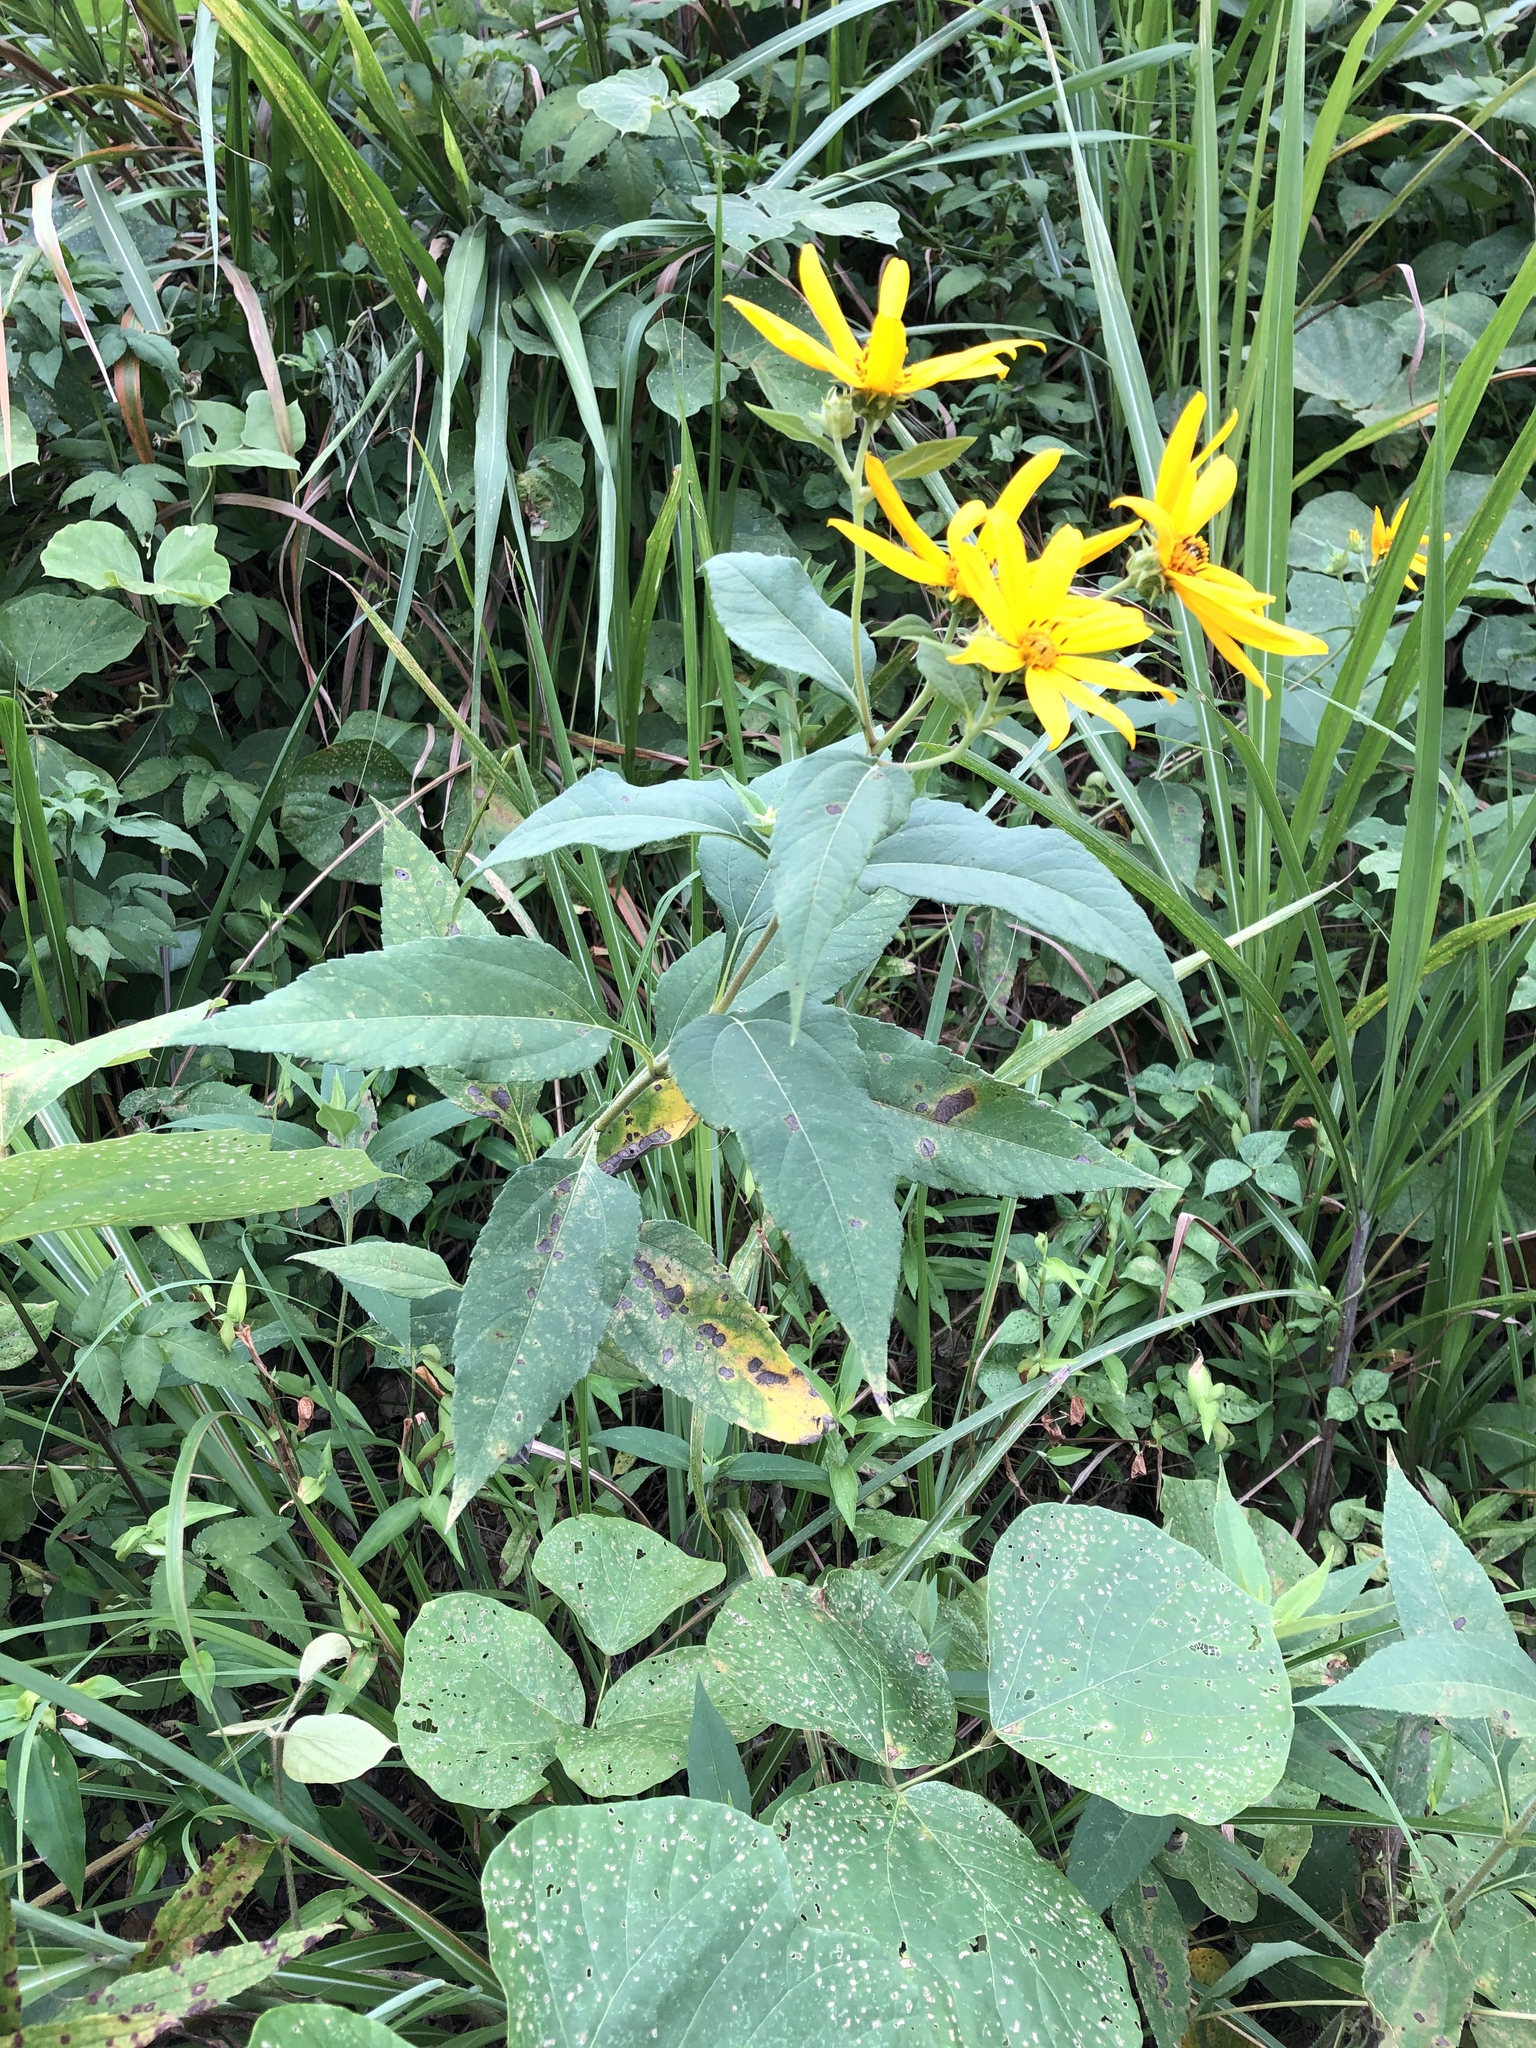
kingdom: Plantae
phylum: Tracheophyta
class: Magnoliopsida
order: Asterales
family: Asteraceae
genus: Helianthus
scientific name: Helianthus tuberosus
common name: Jerusalem artichoke
